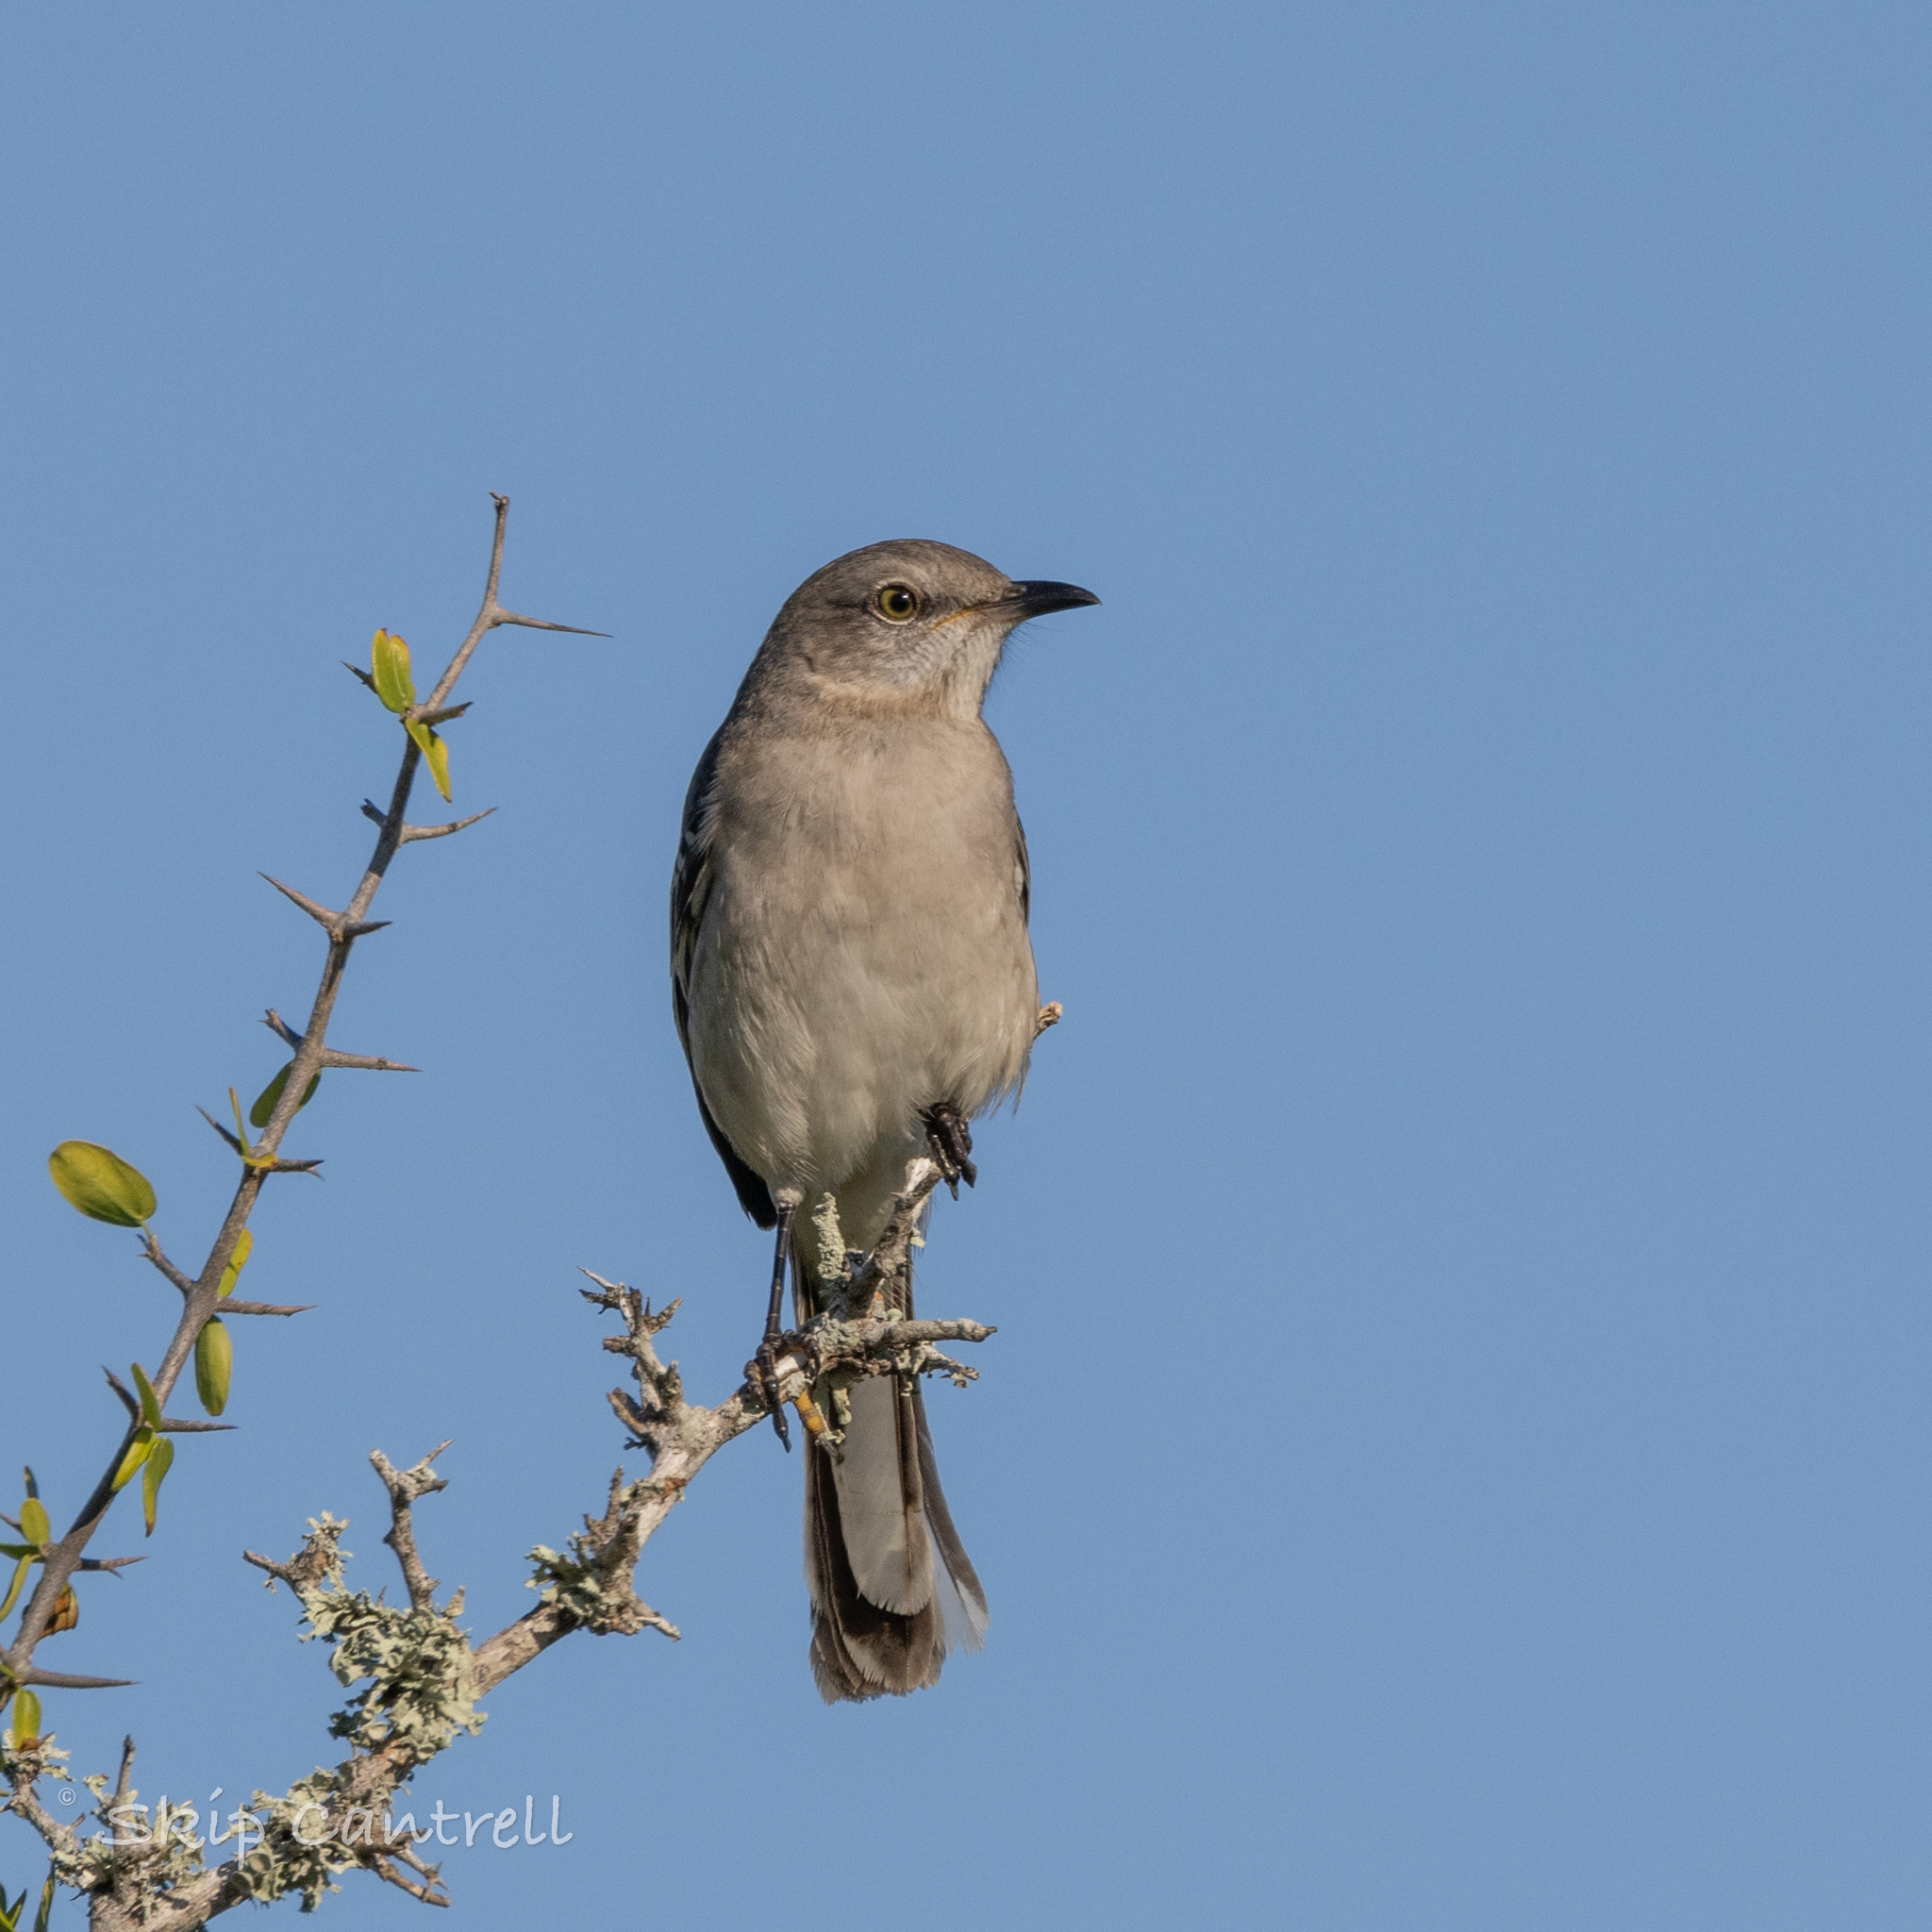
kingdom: Animalia
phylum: Chordata
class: Aves
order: Passeriformes
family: Mimidae
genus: Mimus
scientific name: Mimus polyglottos
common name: Northern mockingbird
